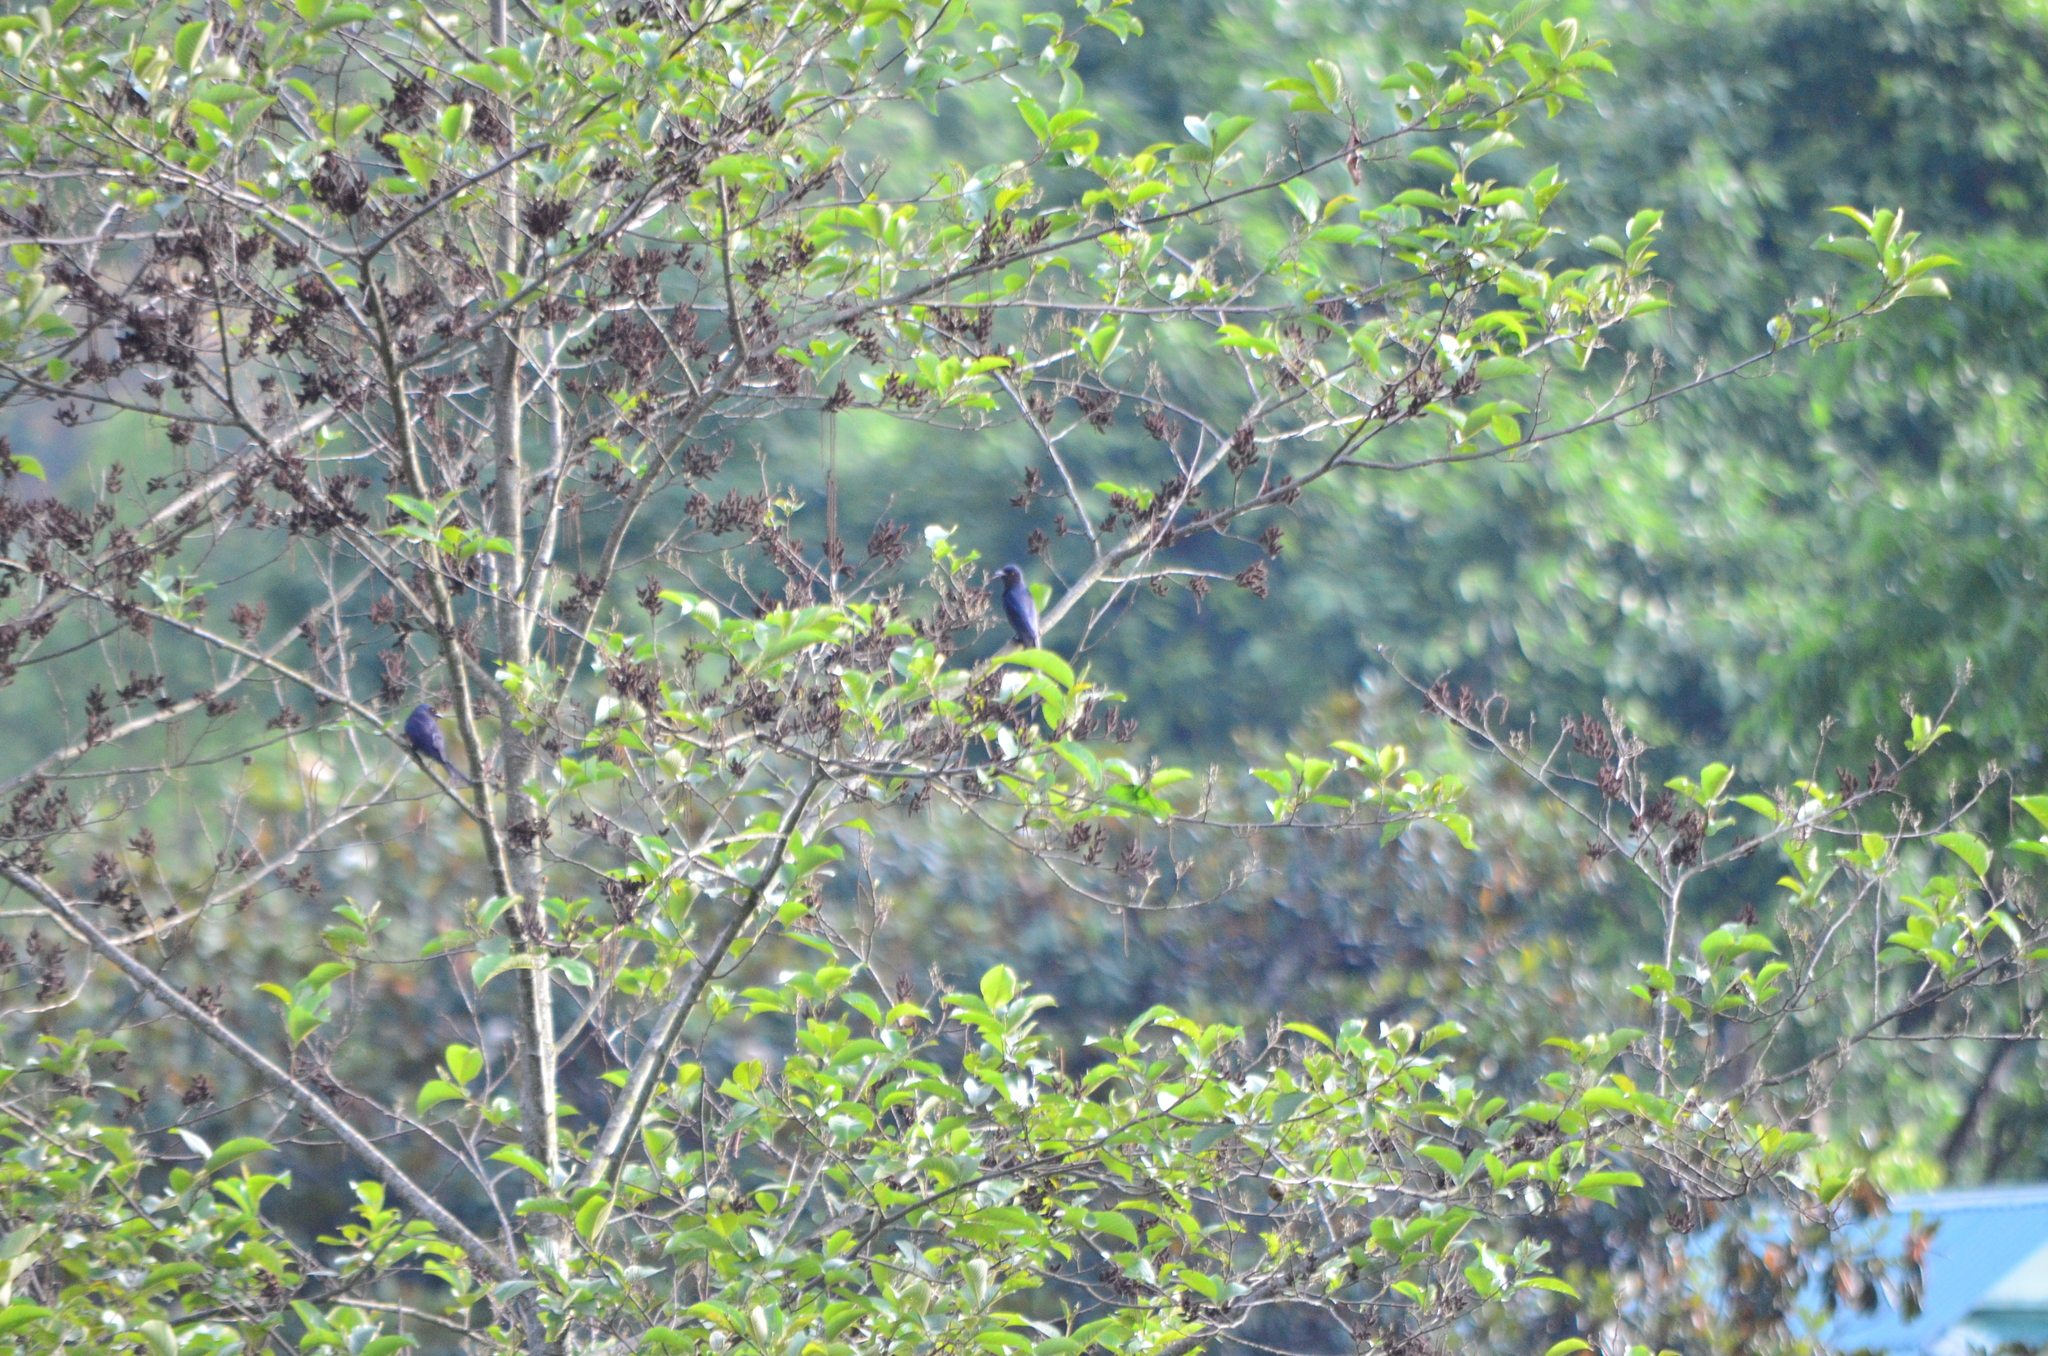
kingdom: Animalia
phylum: Chordata
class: Aves
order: Passeriformes
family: Dicruridae
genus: Dicrurus
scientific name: Dicrurus leucophaeus
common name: Ashy drongo
